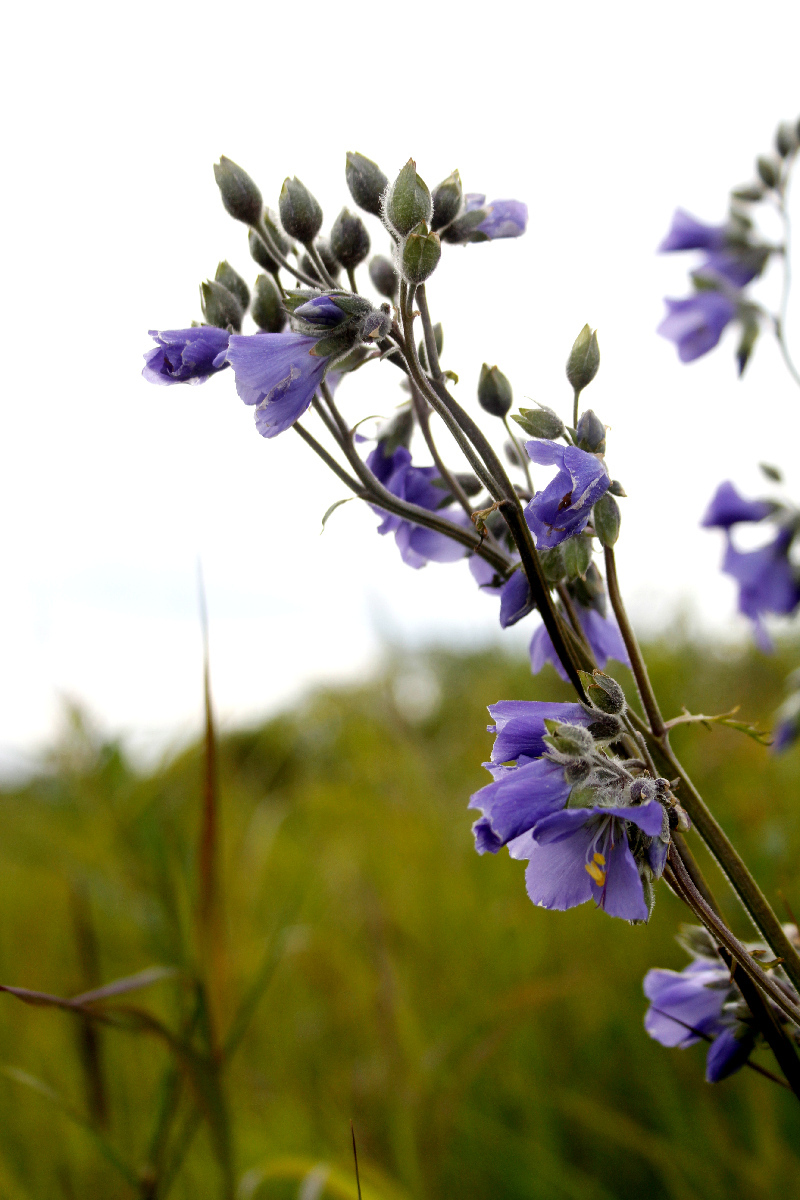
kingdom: Plantae
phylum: Tracheophyta
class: Magnoliopsida
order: Ericales
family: Polemoniaceae
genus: Polemonium
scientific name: Polemonium acutiflorum
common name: Tall jacob's-ladder
